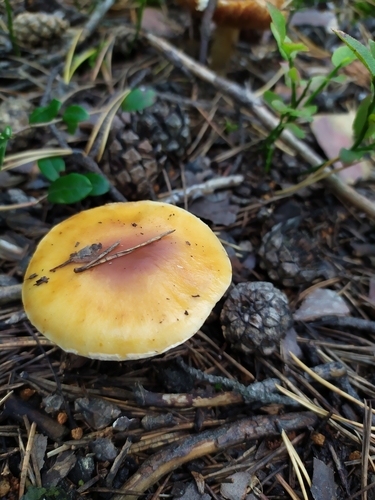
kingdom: Fungi
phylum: Basidiomycota
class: Agaricomycetes
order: Agaricales
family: Cortinariaceae
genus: Cortinarius
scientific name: Cortinarius
